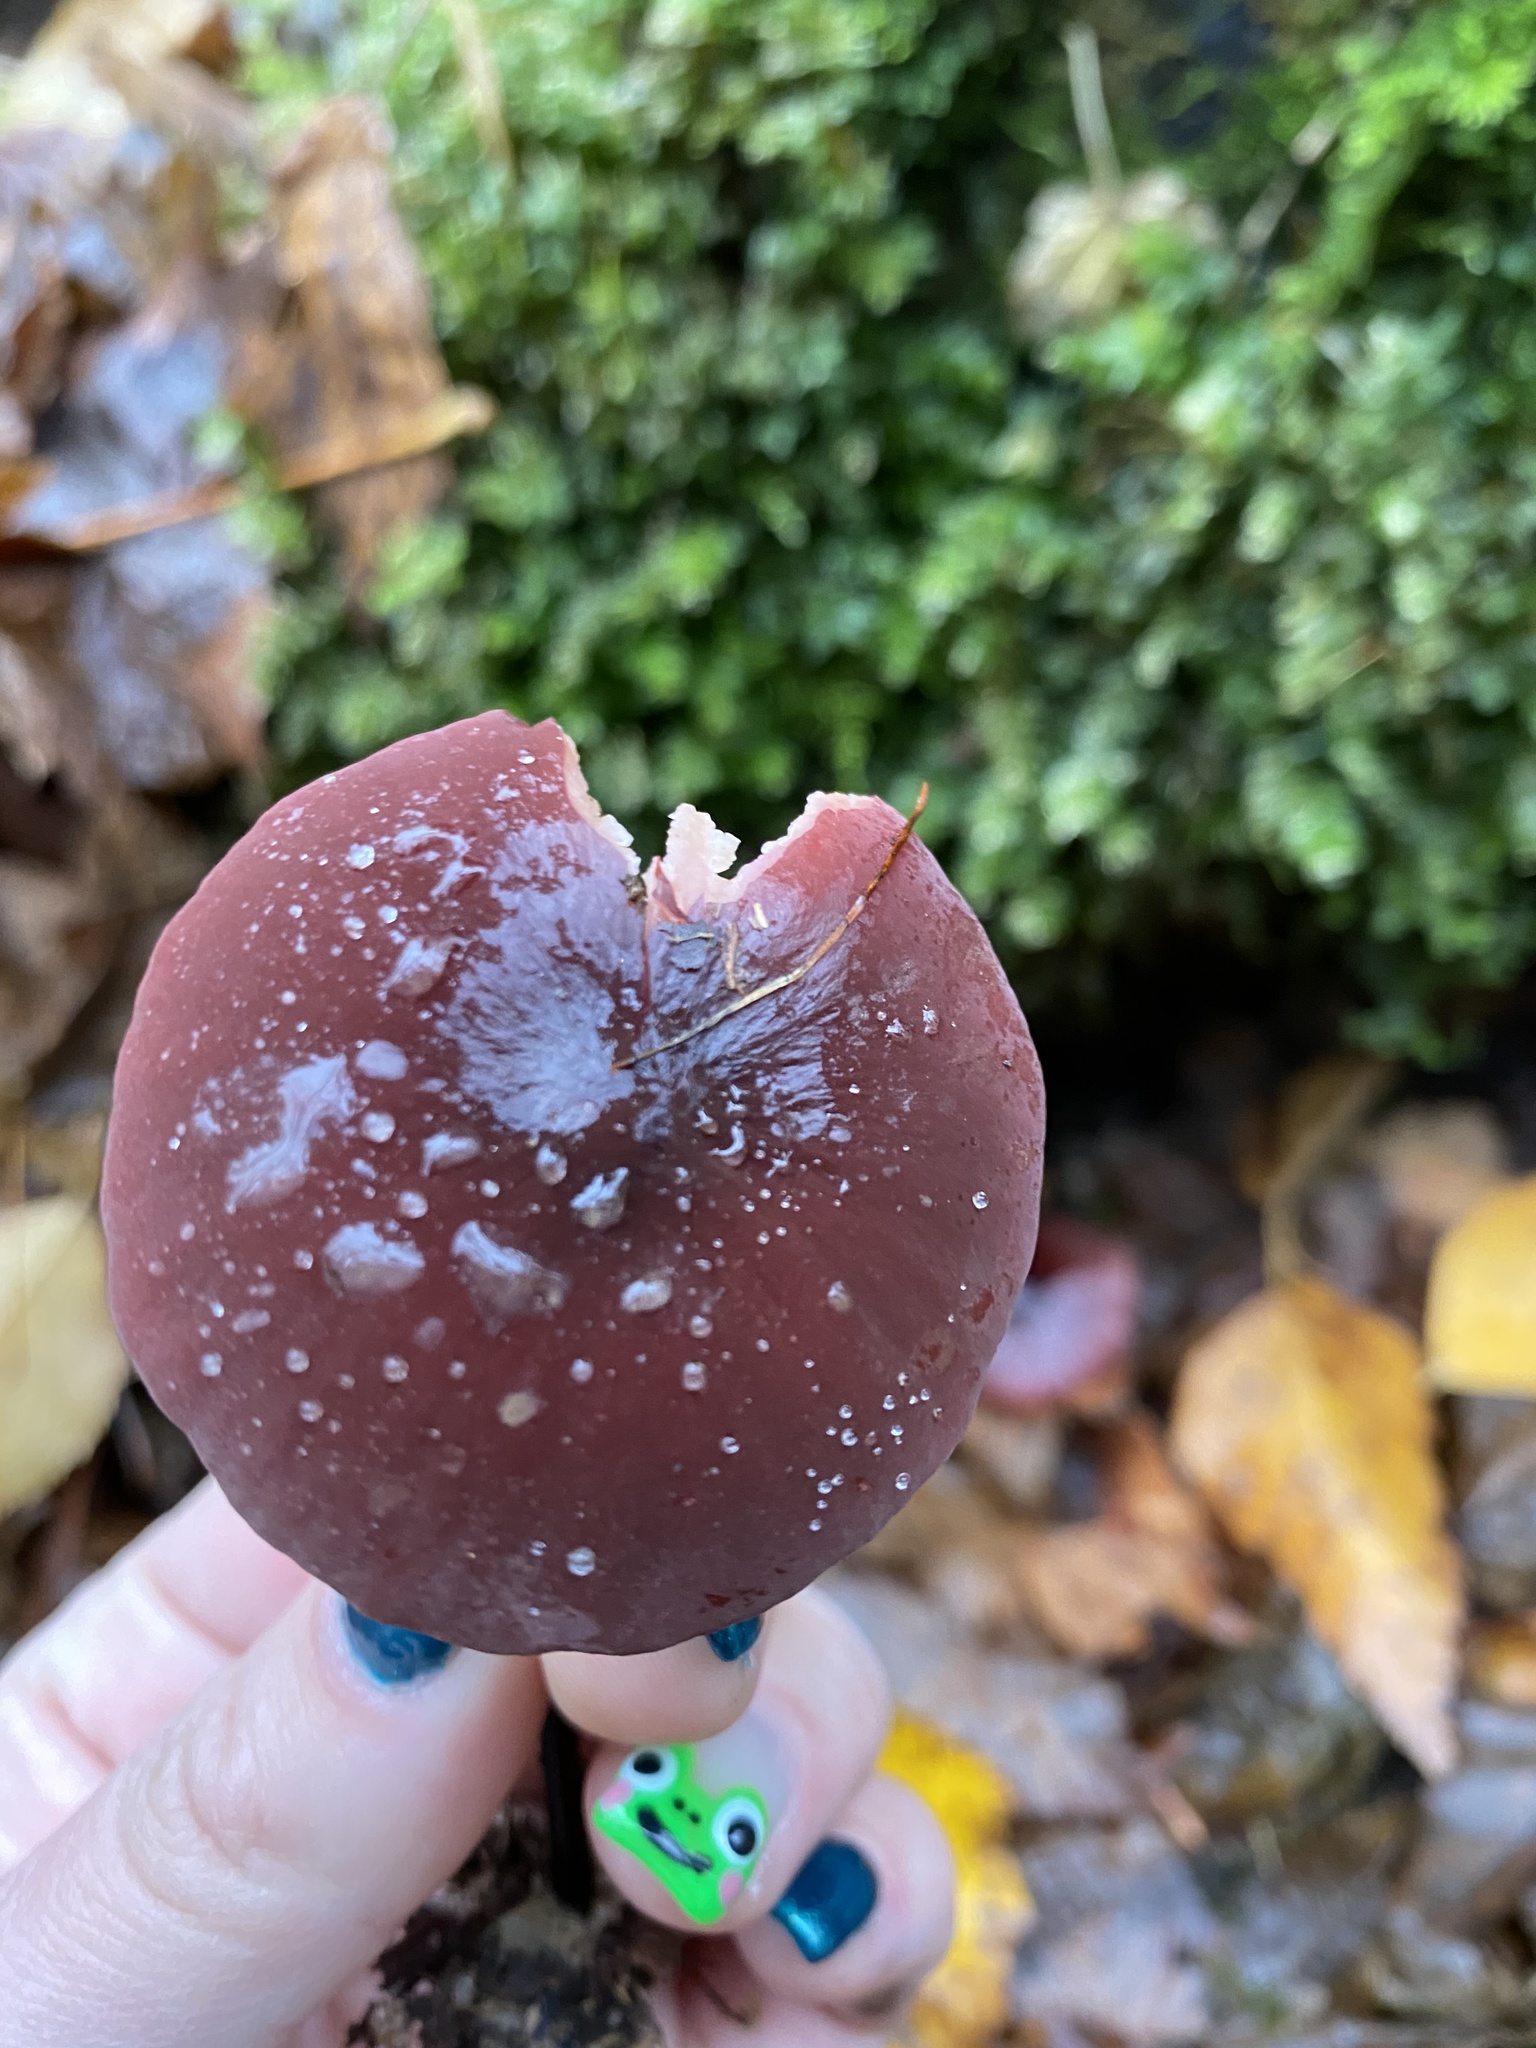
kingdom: Fungi
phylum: Basidiomycota
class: Agaricomycetes
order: Agaricales
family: Marasmiaceae
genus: Marasmius
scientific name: Marasmius plicatulus
